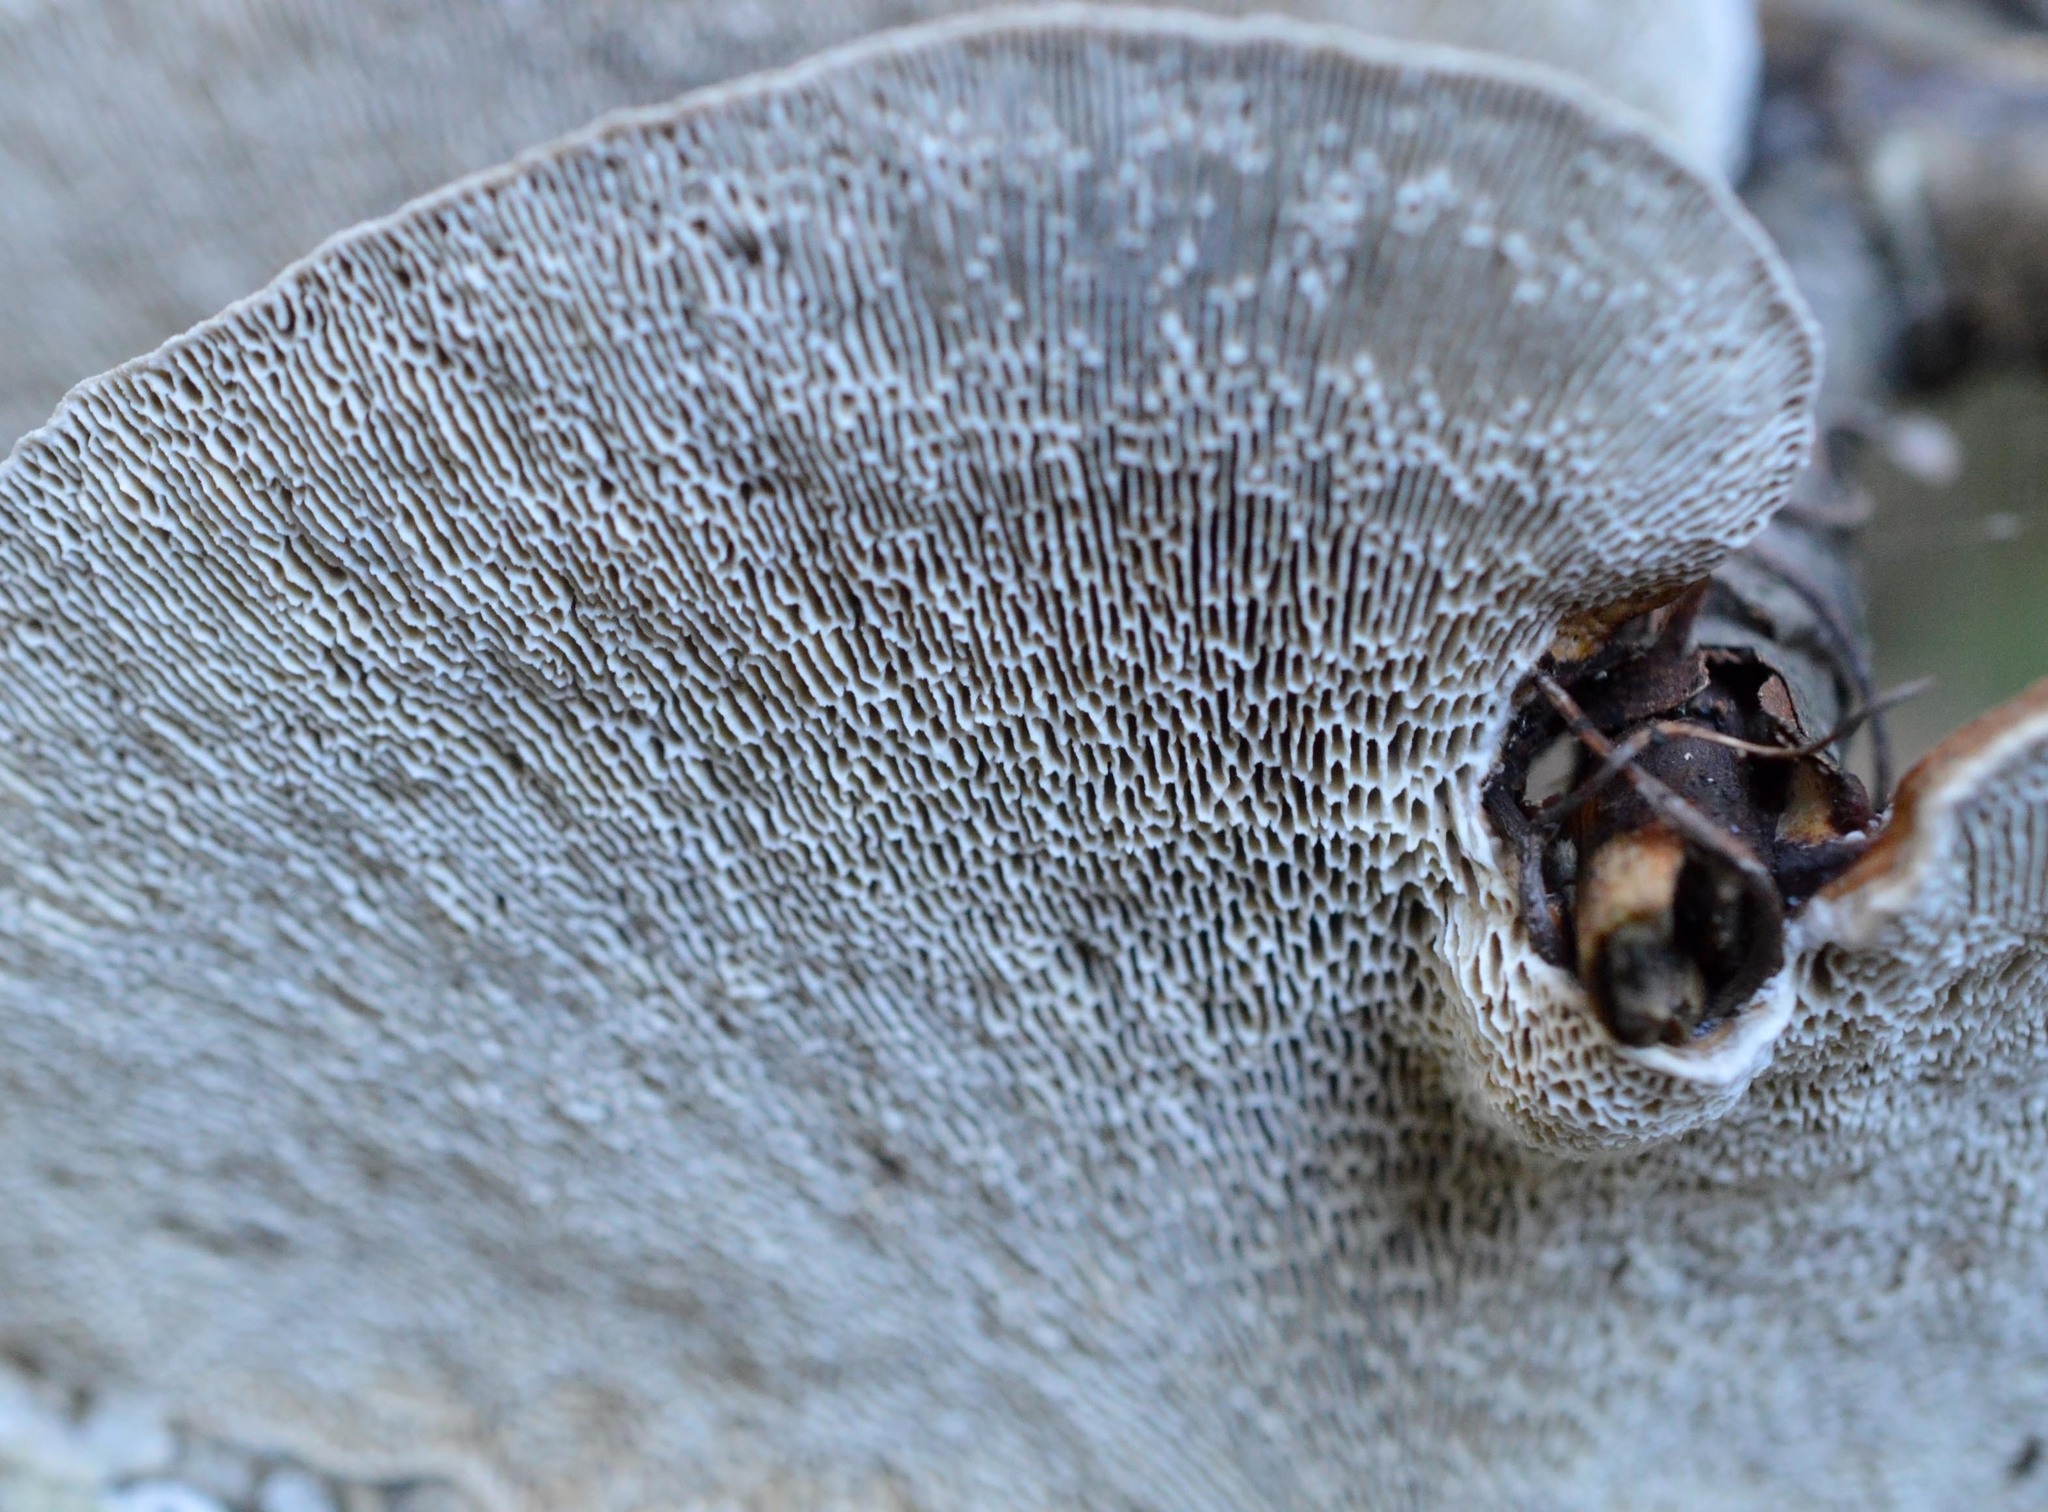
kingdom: Fungi
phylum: Basidiomycota
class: Agaricomycetes
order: Polyporales
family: Polyporaceae
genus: Daedaleopsis
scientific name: Daedaleopsis confragosa
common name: Blushing bracket
